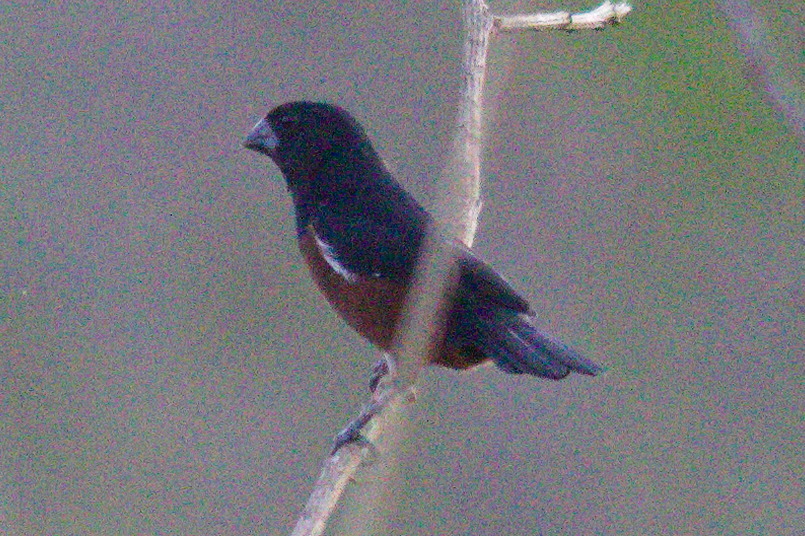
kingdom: Animalia
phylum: Chordata
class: Aves
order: Passeriformes
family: Thraupidae
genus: Sporophila
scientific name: Sporophila angolensis
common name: Chestnut-bellied seed-finch
